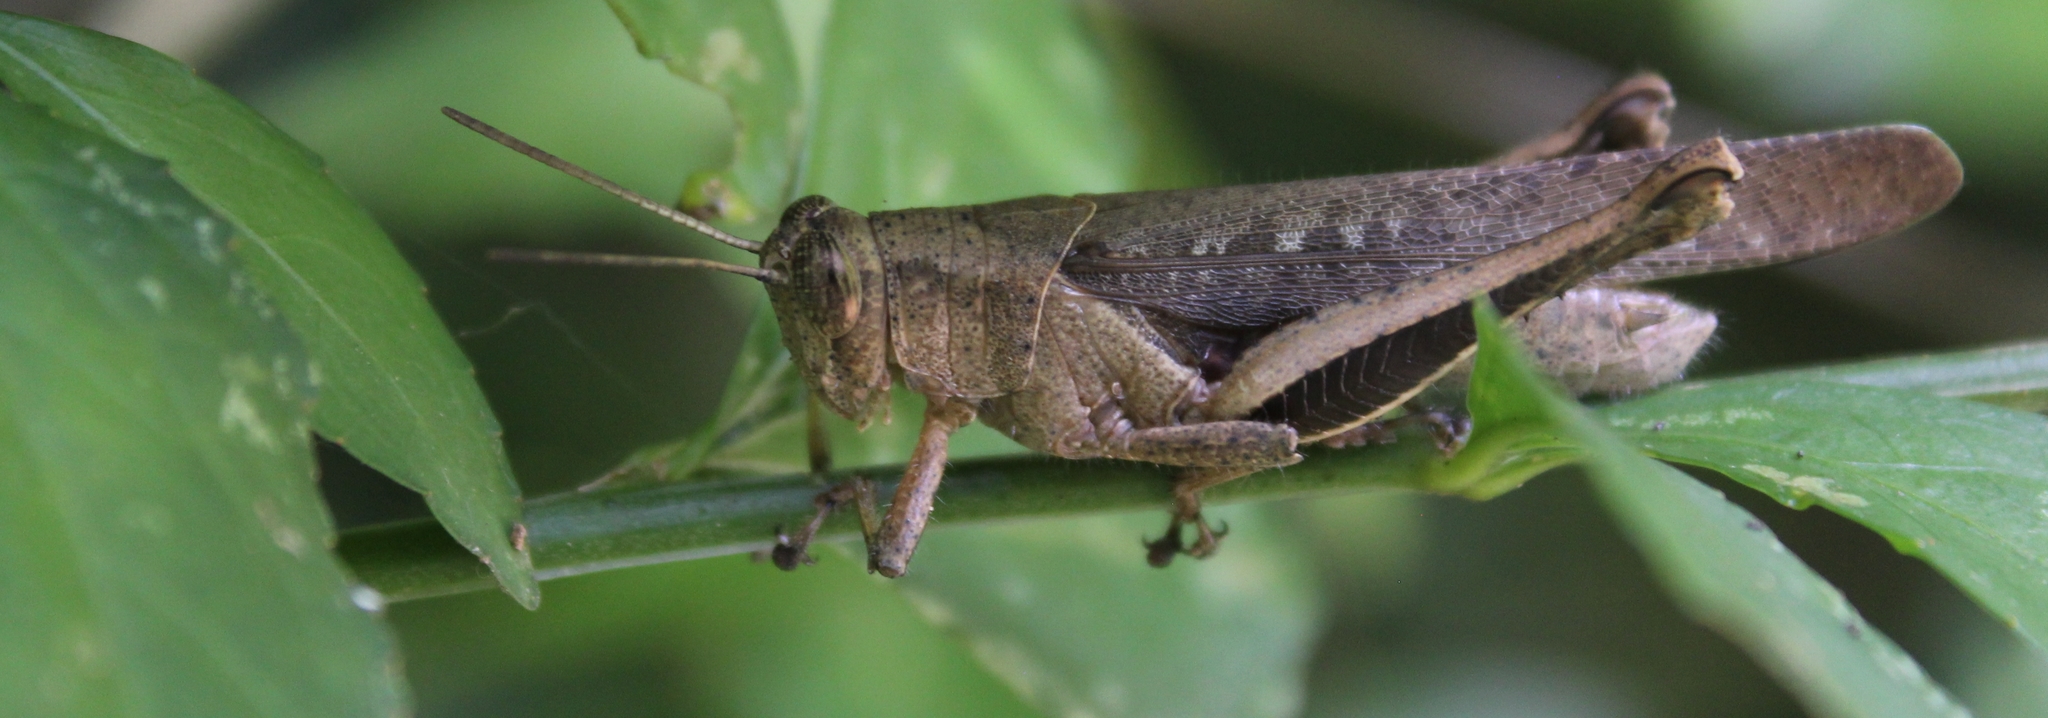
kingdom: Animalia
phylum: Arthropoda
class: Insecta
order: Orthoptera
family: Acrididae
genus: Abracris
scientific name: Abracris flavolineata
